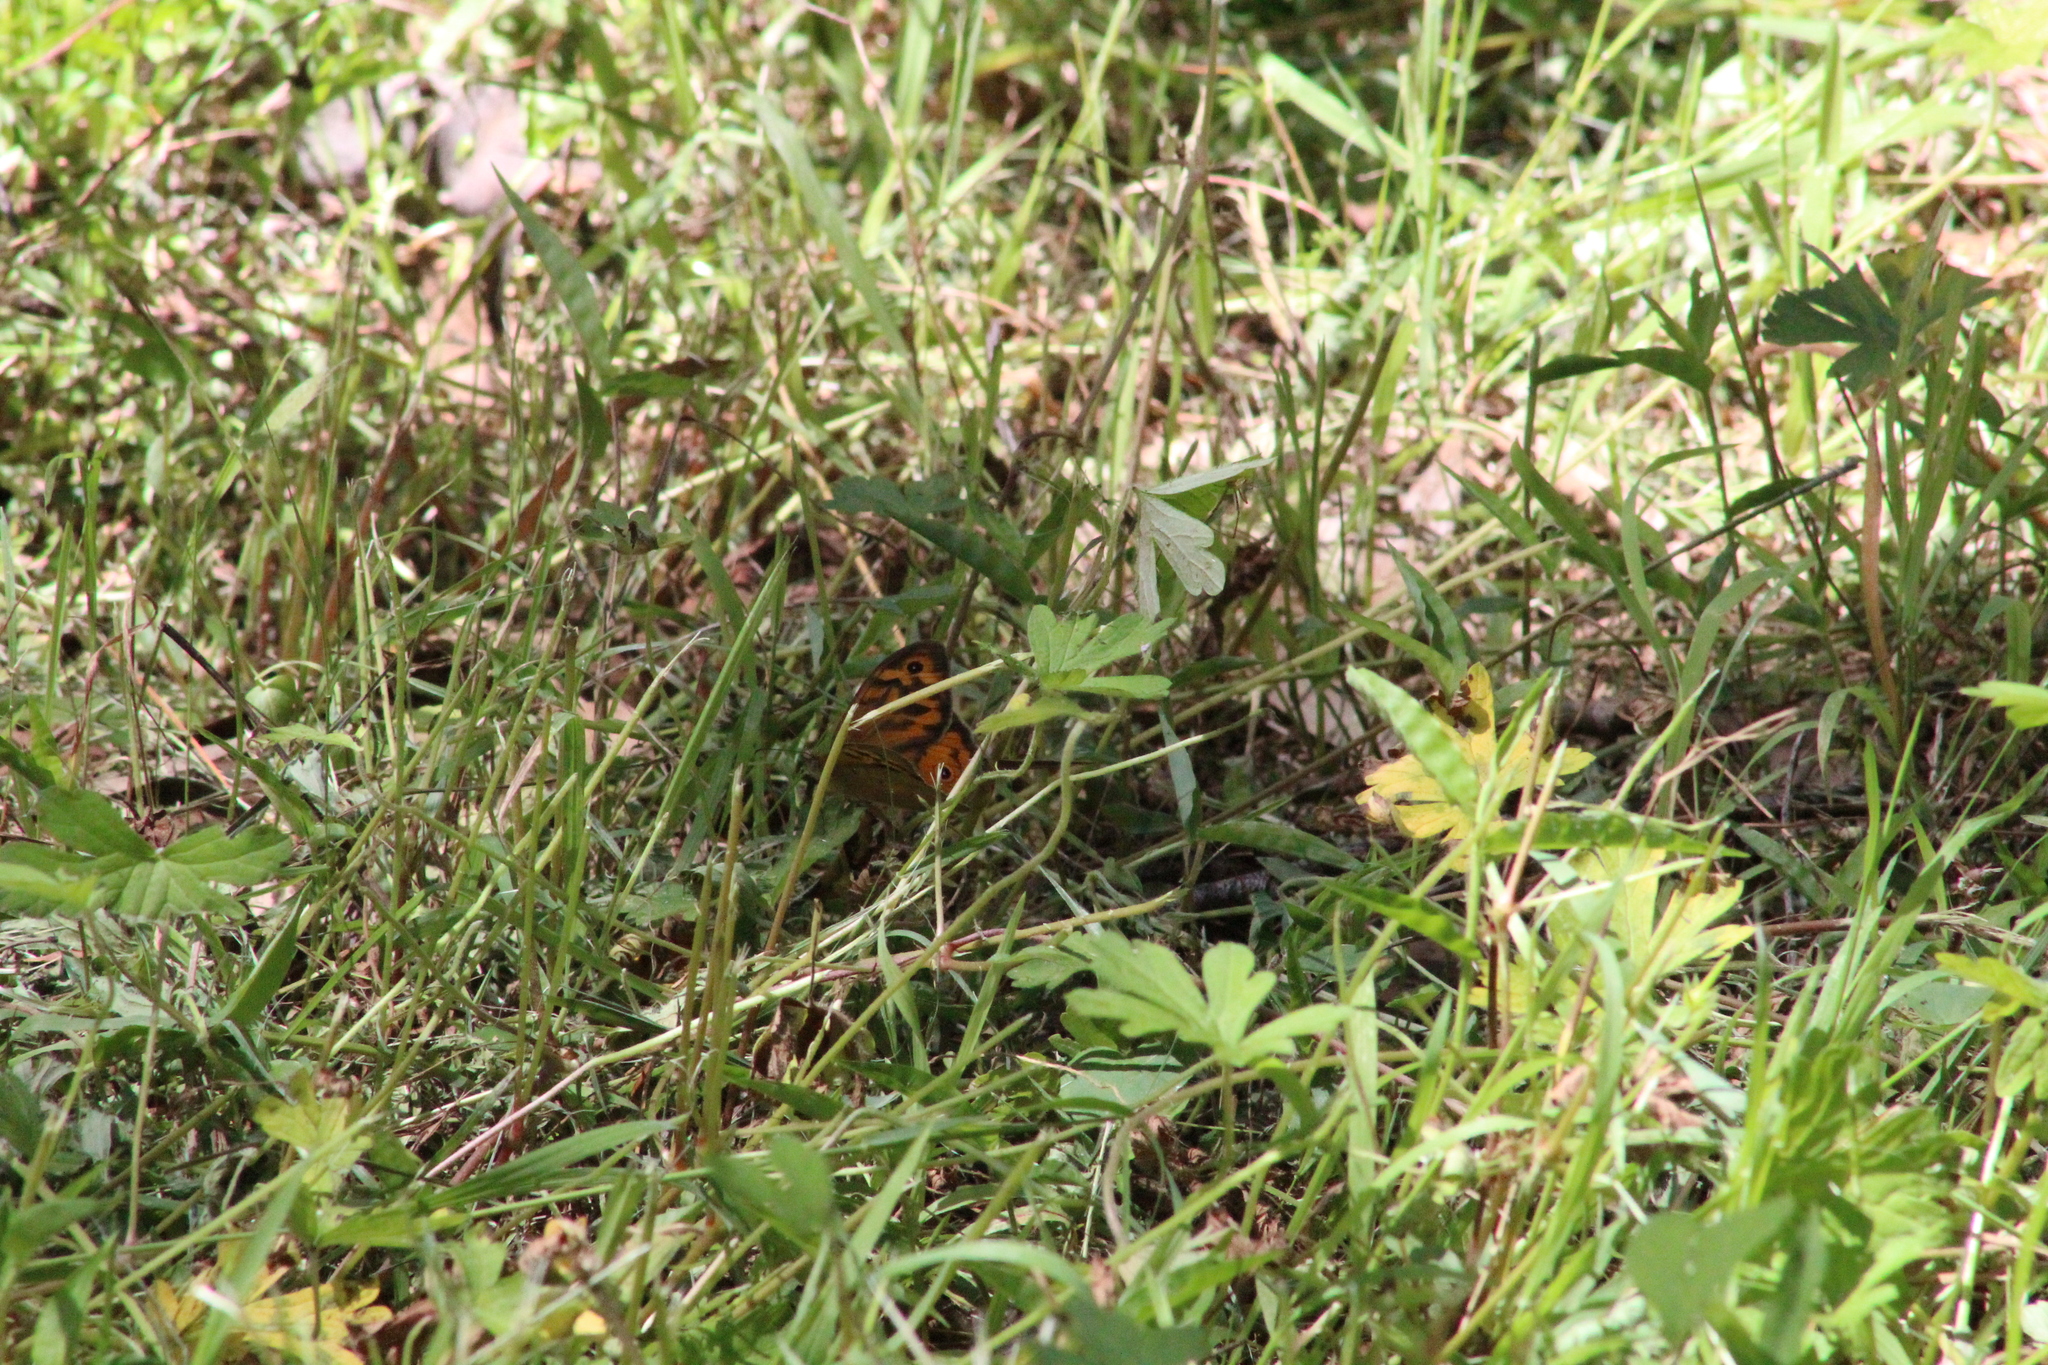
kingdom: Animalia
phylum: Arthropoda
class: Insecta
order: Lepidoptera
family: Nymphalidae
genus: Heteronympha
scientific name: Heteronympha merope
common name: Common brown
